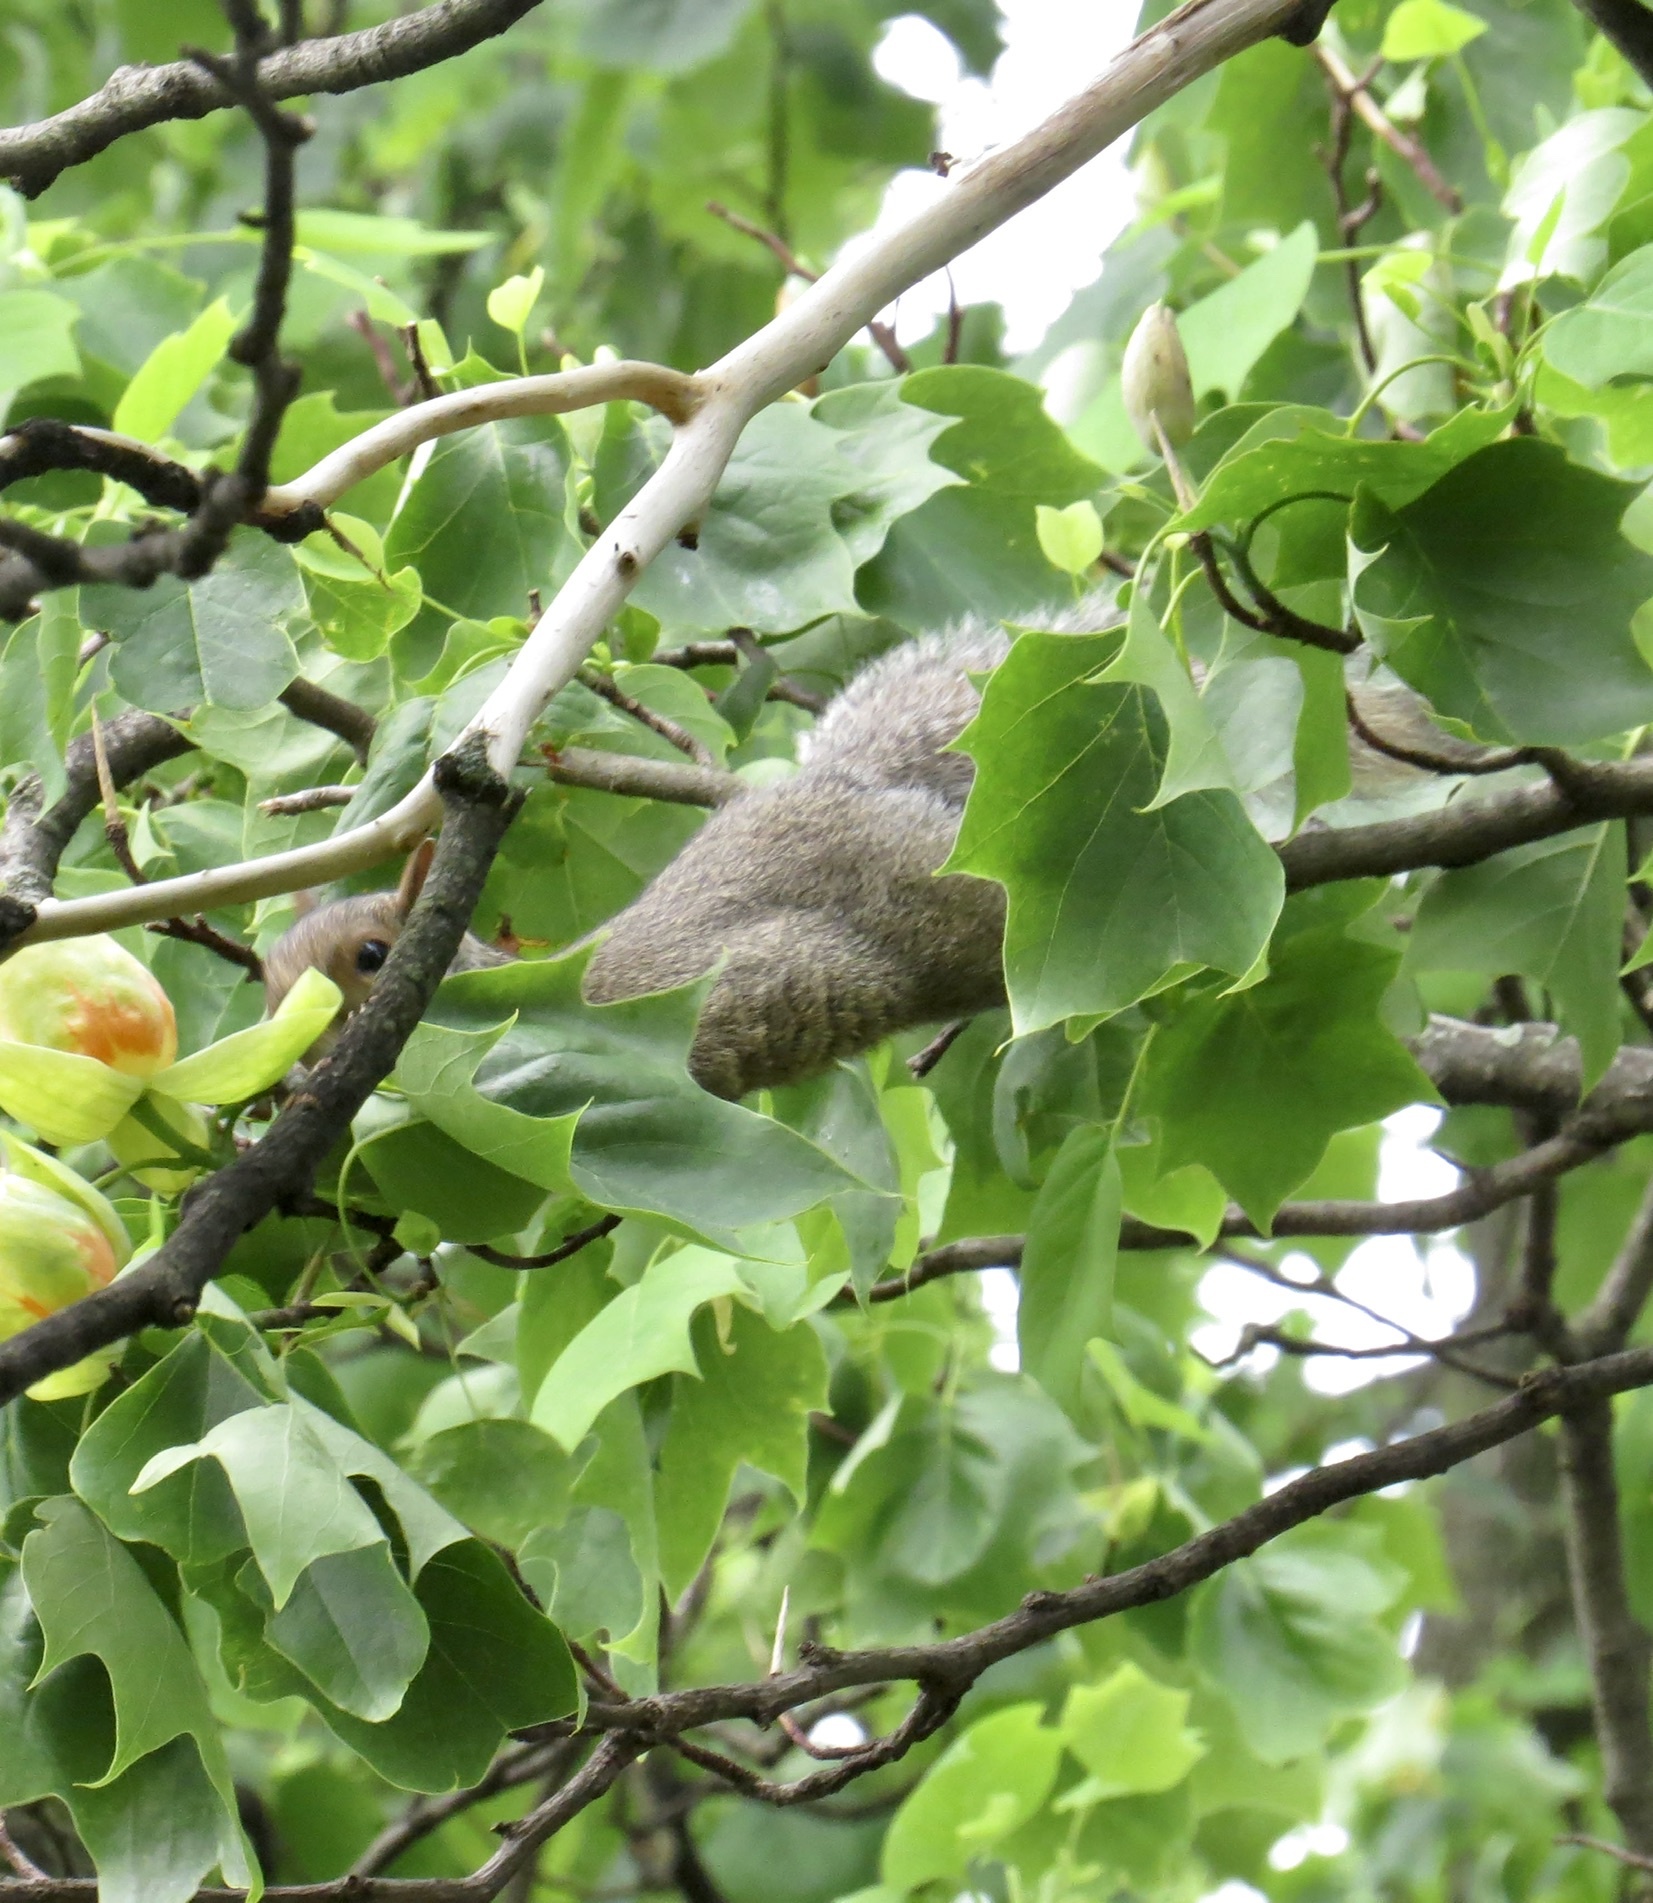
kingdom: Animalia
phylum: Chordata
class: Mammalia
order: Rodentia
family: Sciuridae
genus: Sciurus
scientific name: Sciurus carolinensis
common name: Eastern gray squirrel
